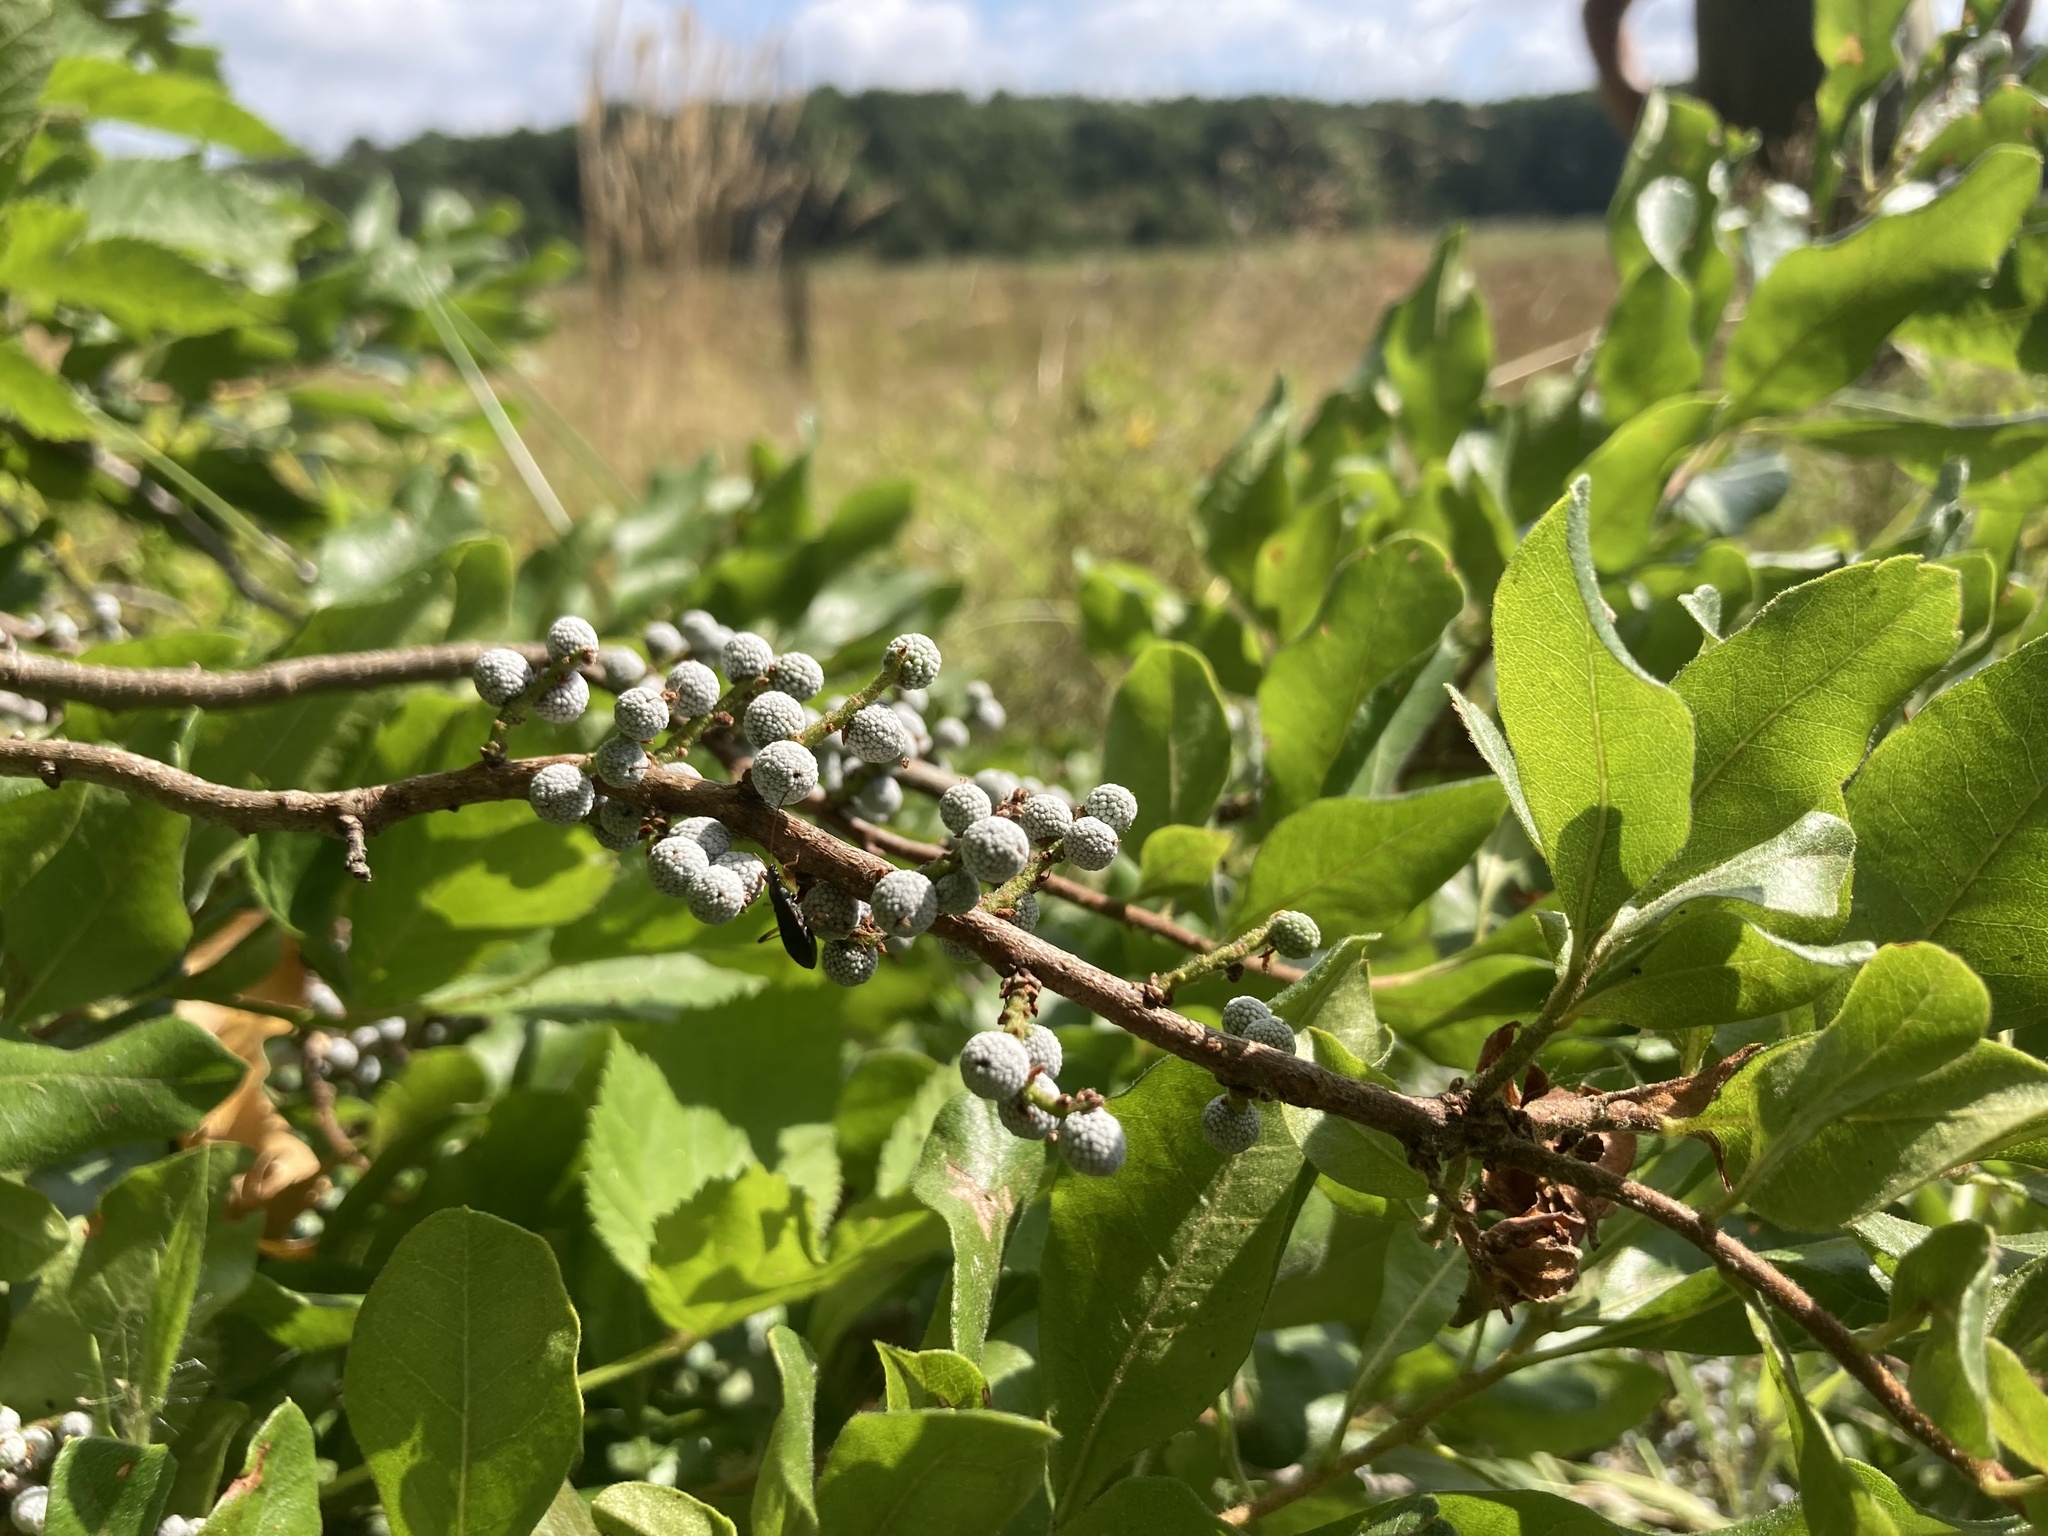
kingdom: Plantae
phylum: Tracheophyta
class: Magnoliopsida
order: Fagales
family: Myricaceae
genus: Morella
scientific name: Morella pensylvanica
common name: Northern bayberry
